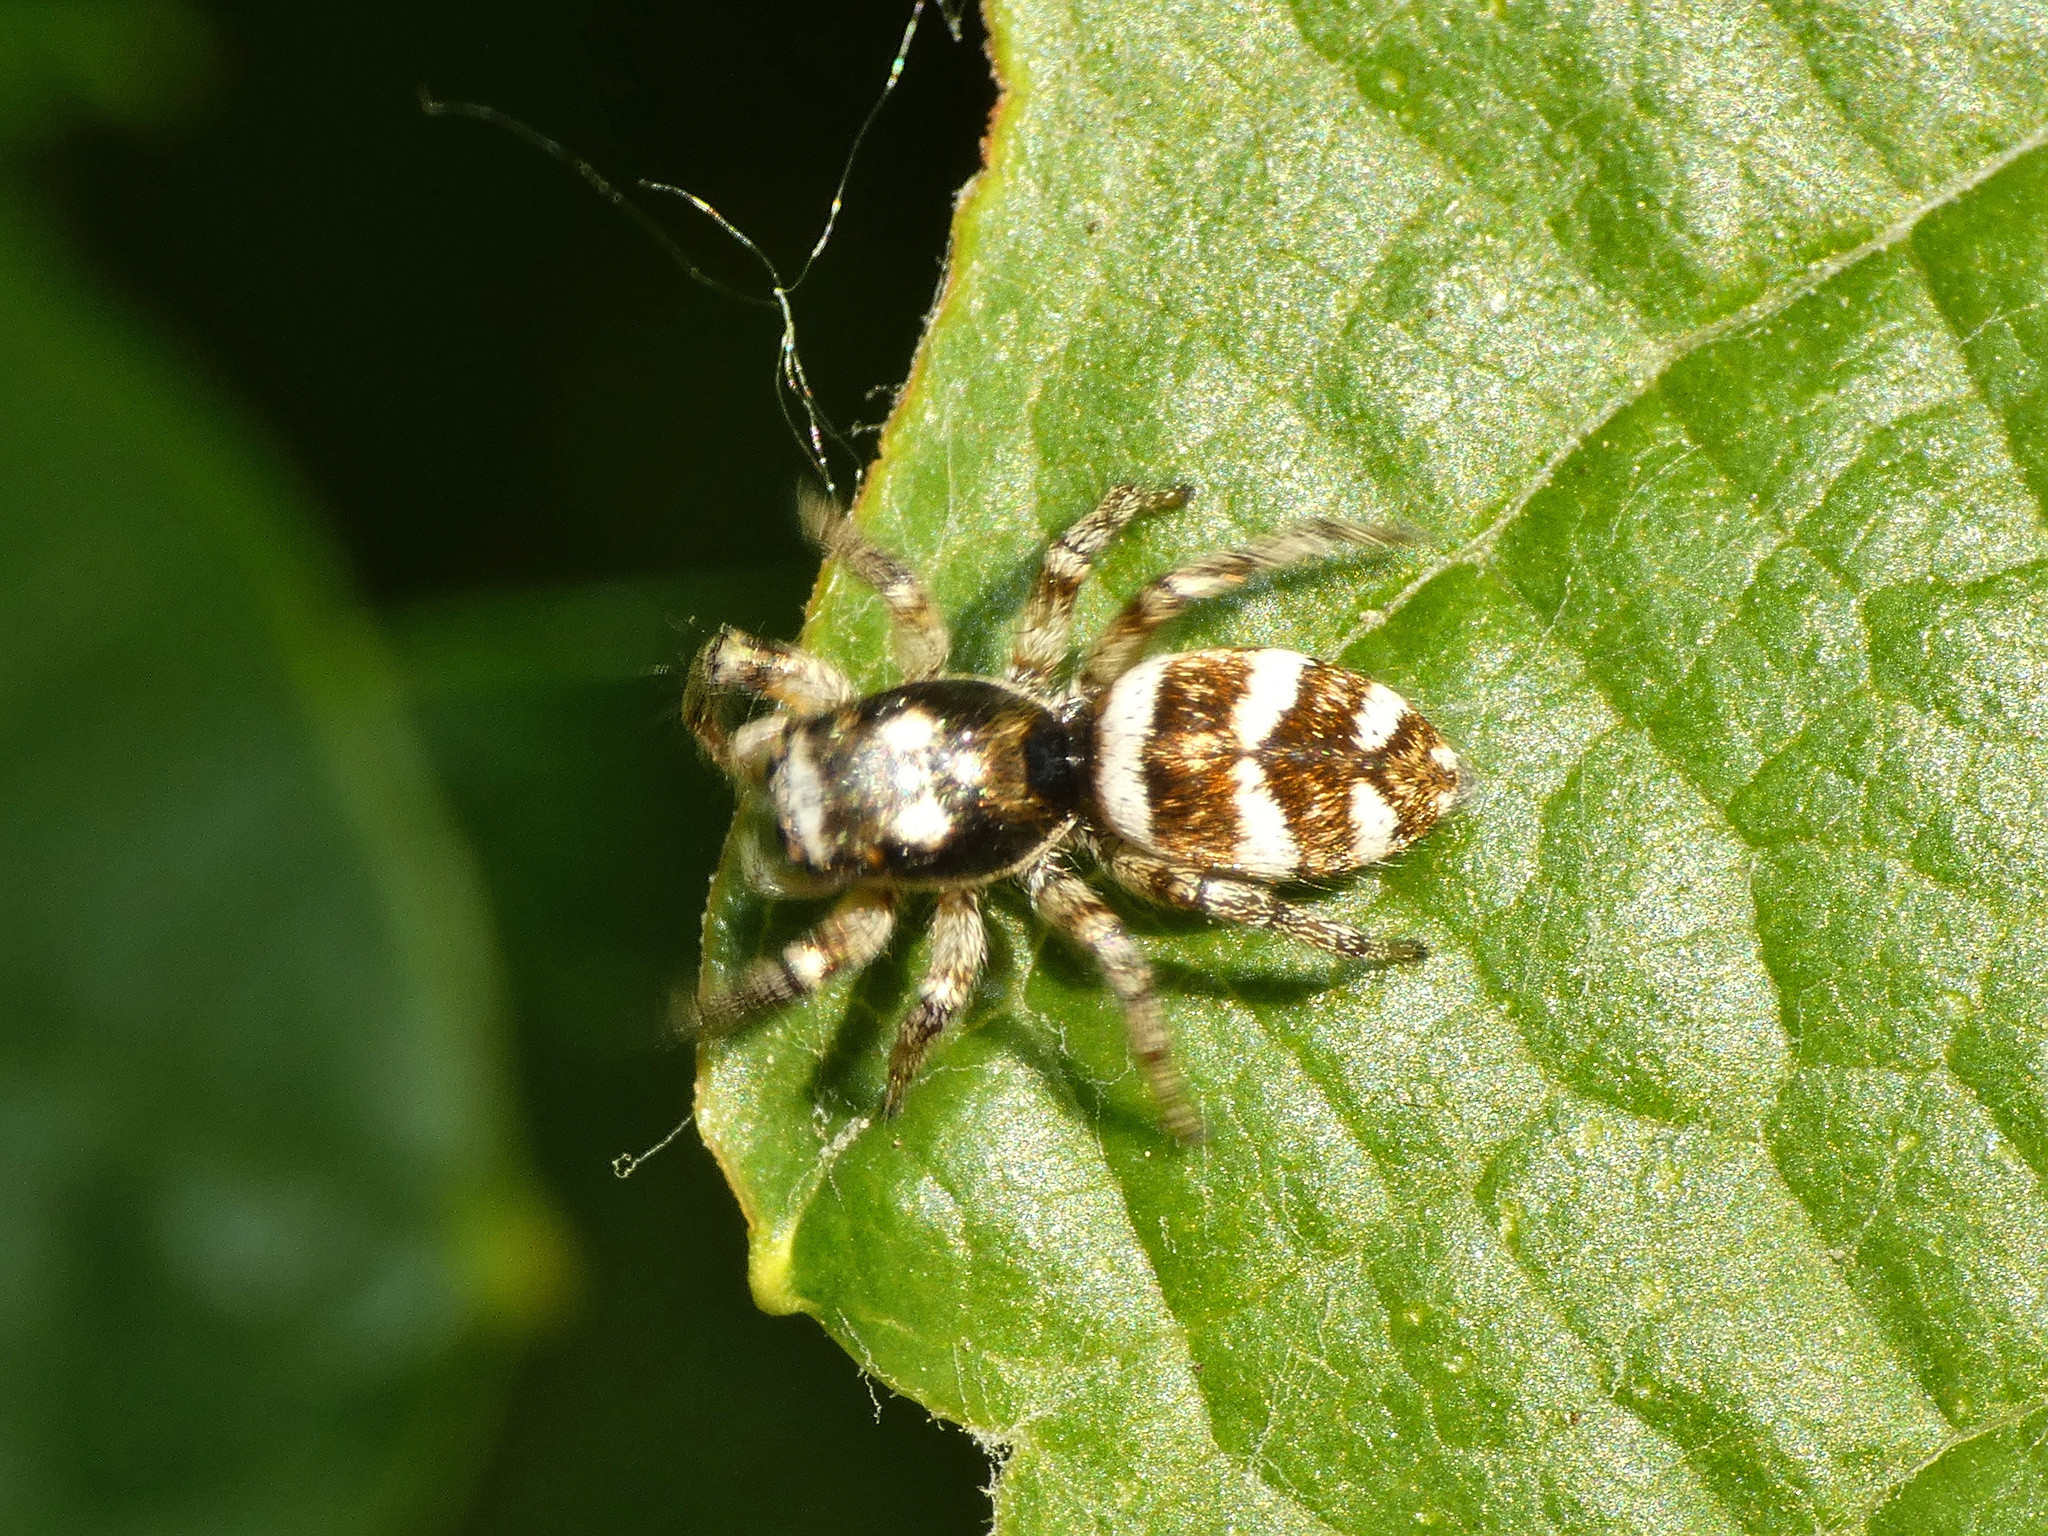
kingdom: Animalia
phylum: Arthropoda
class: Arachnida
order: Araneae
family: Salticidae
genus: Salticus
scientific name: Salticus scenicus
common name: Zebra jumper
